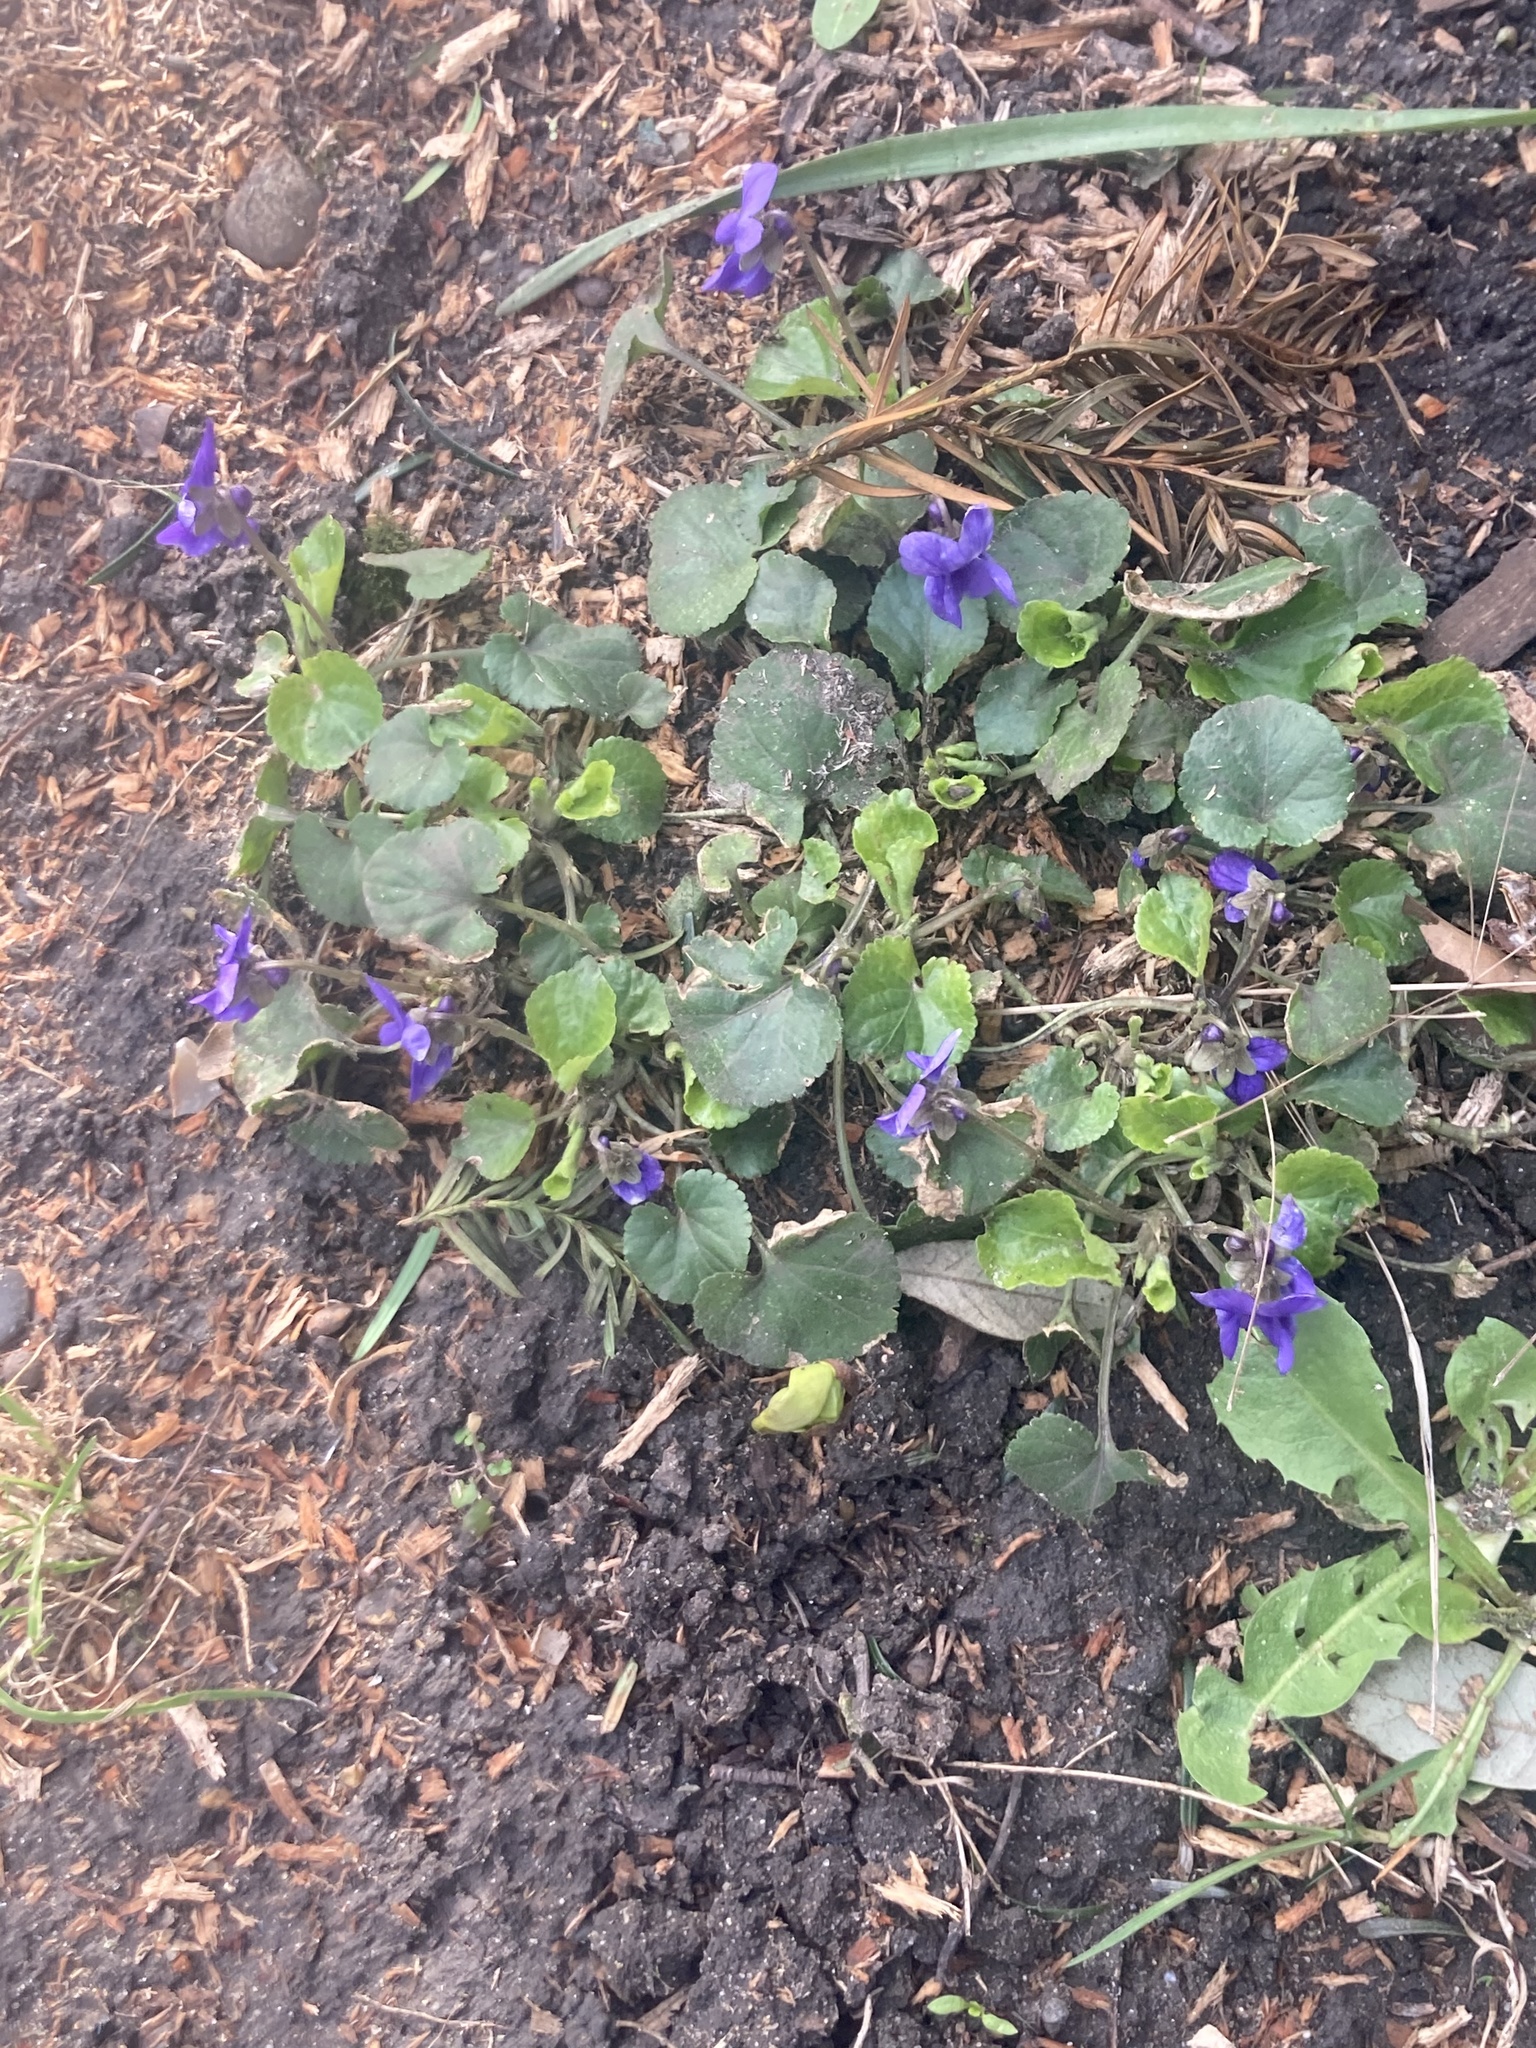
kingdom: Plantae
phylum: Tracheophyta
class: Magnoliopsida
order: Malpighiales
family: Violaceae
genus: Viola
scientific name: Viola odorata
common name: Sweet violet
